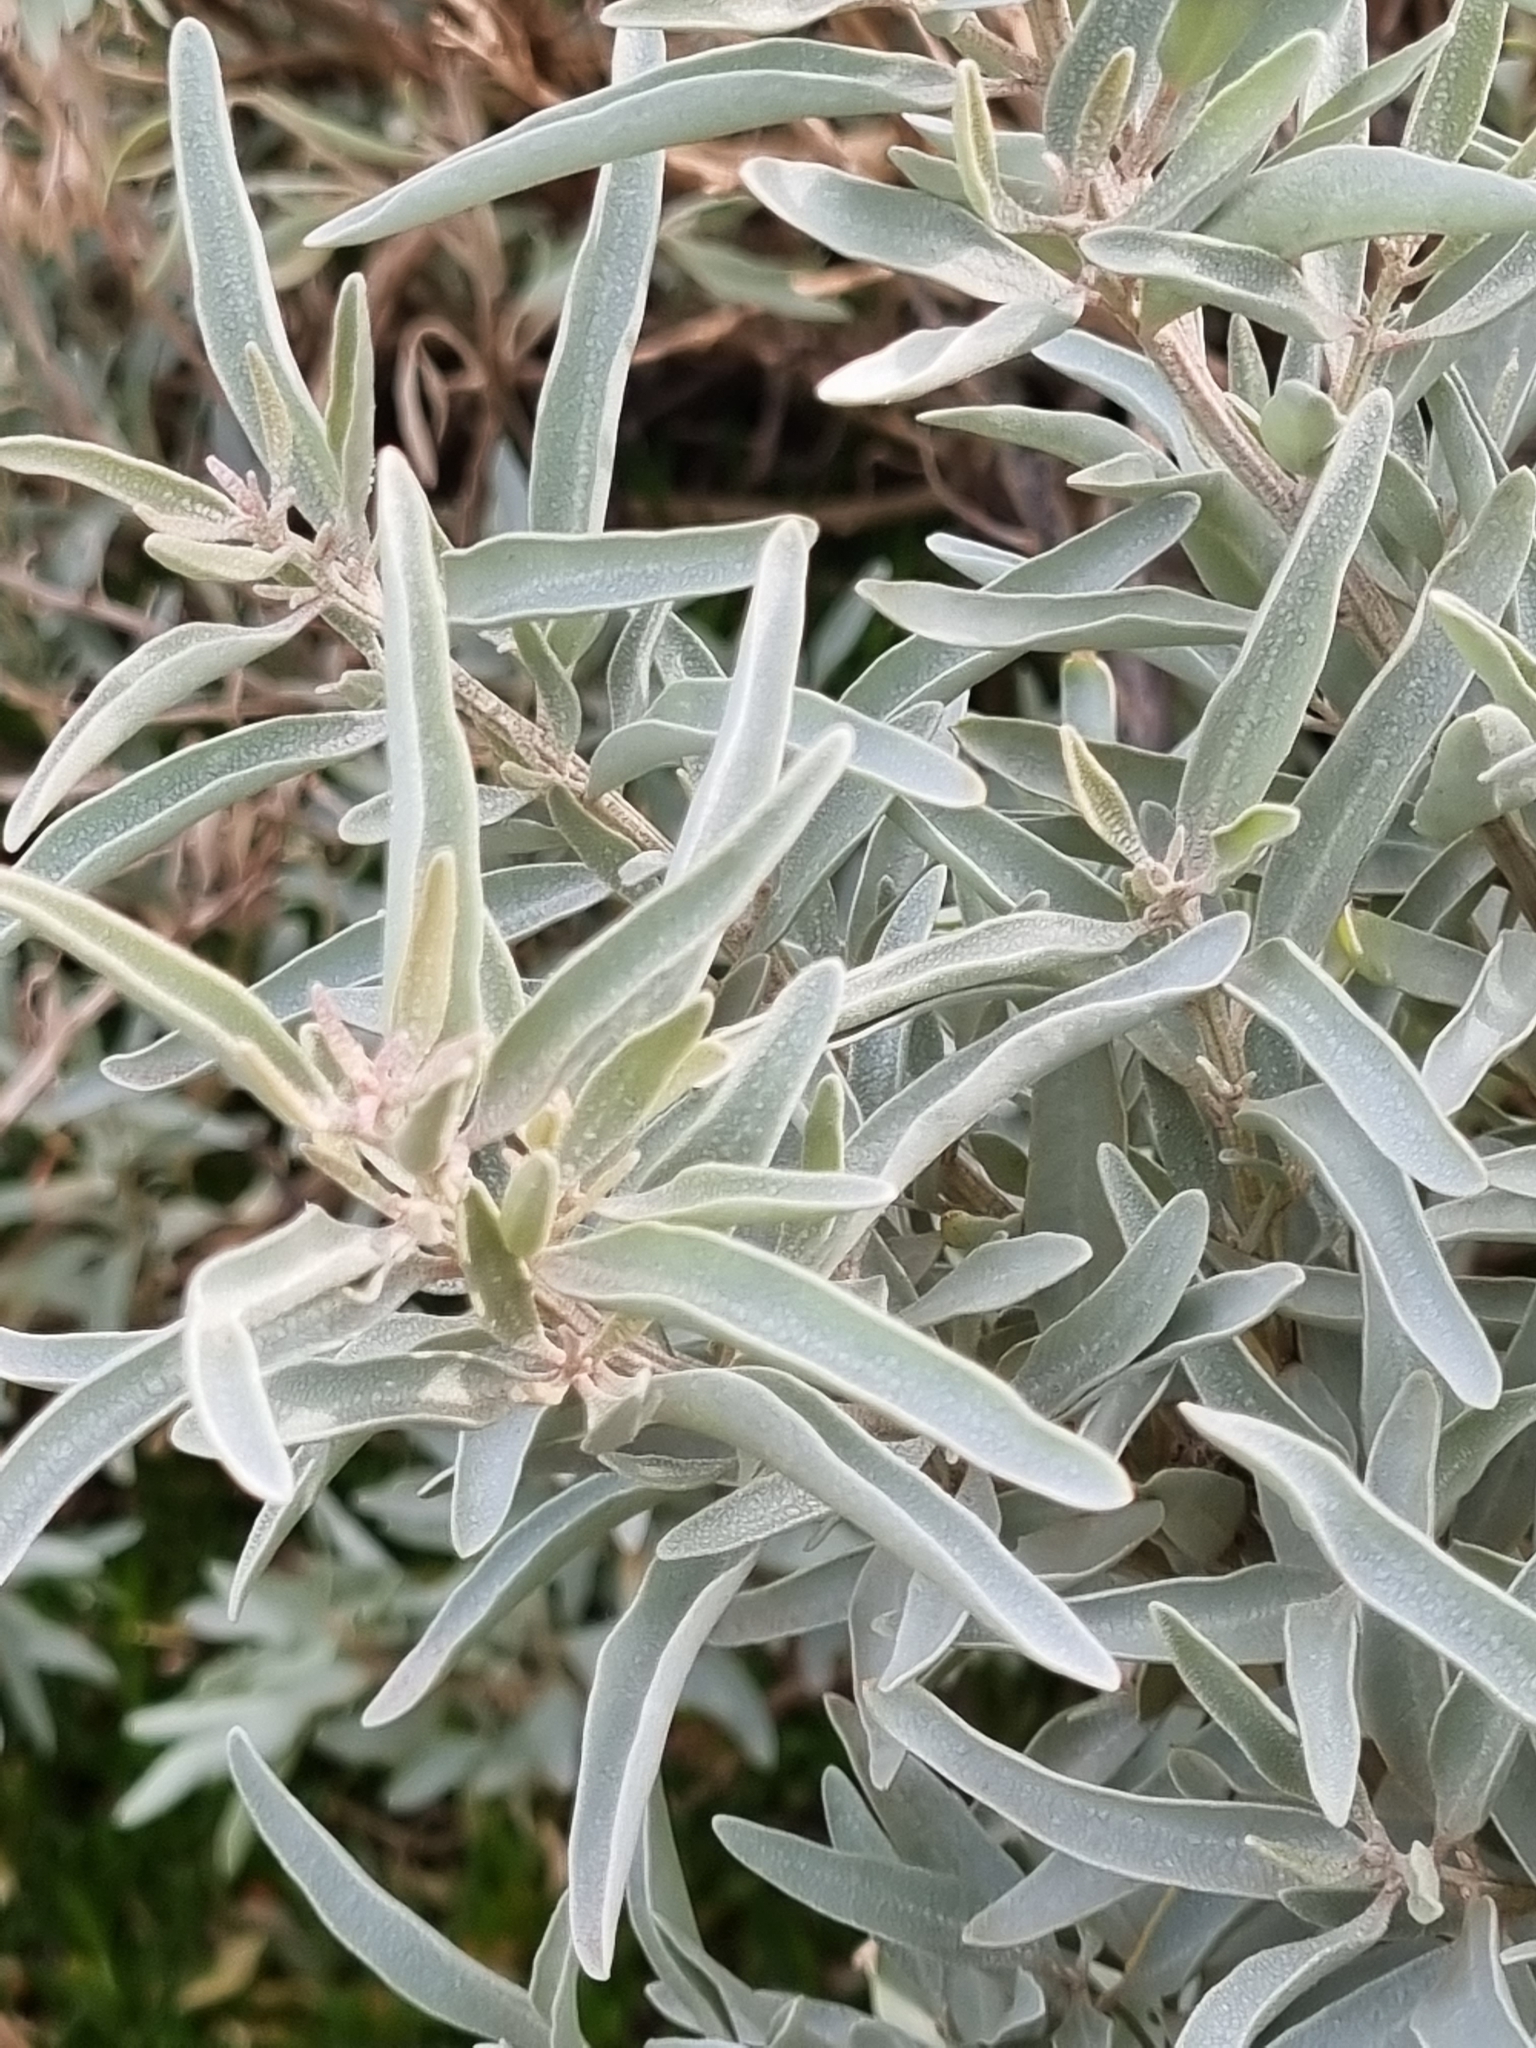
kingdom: Plantae
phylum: Tracheophyta
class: Magnoliopsida
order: Caryophyllales
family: Amaranthaceae
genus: Atriplex
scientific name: Atriplex cinerea
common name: Grey saltbush
